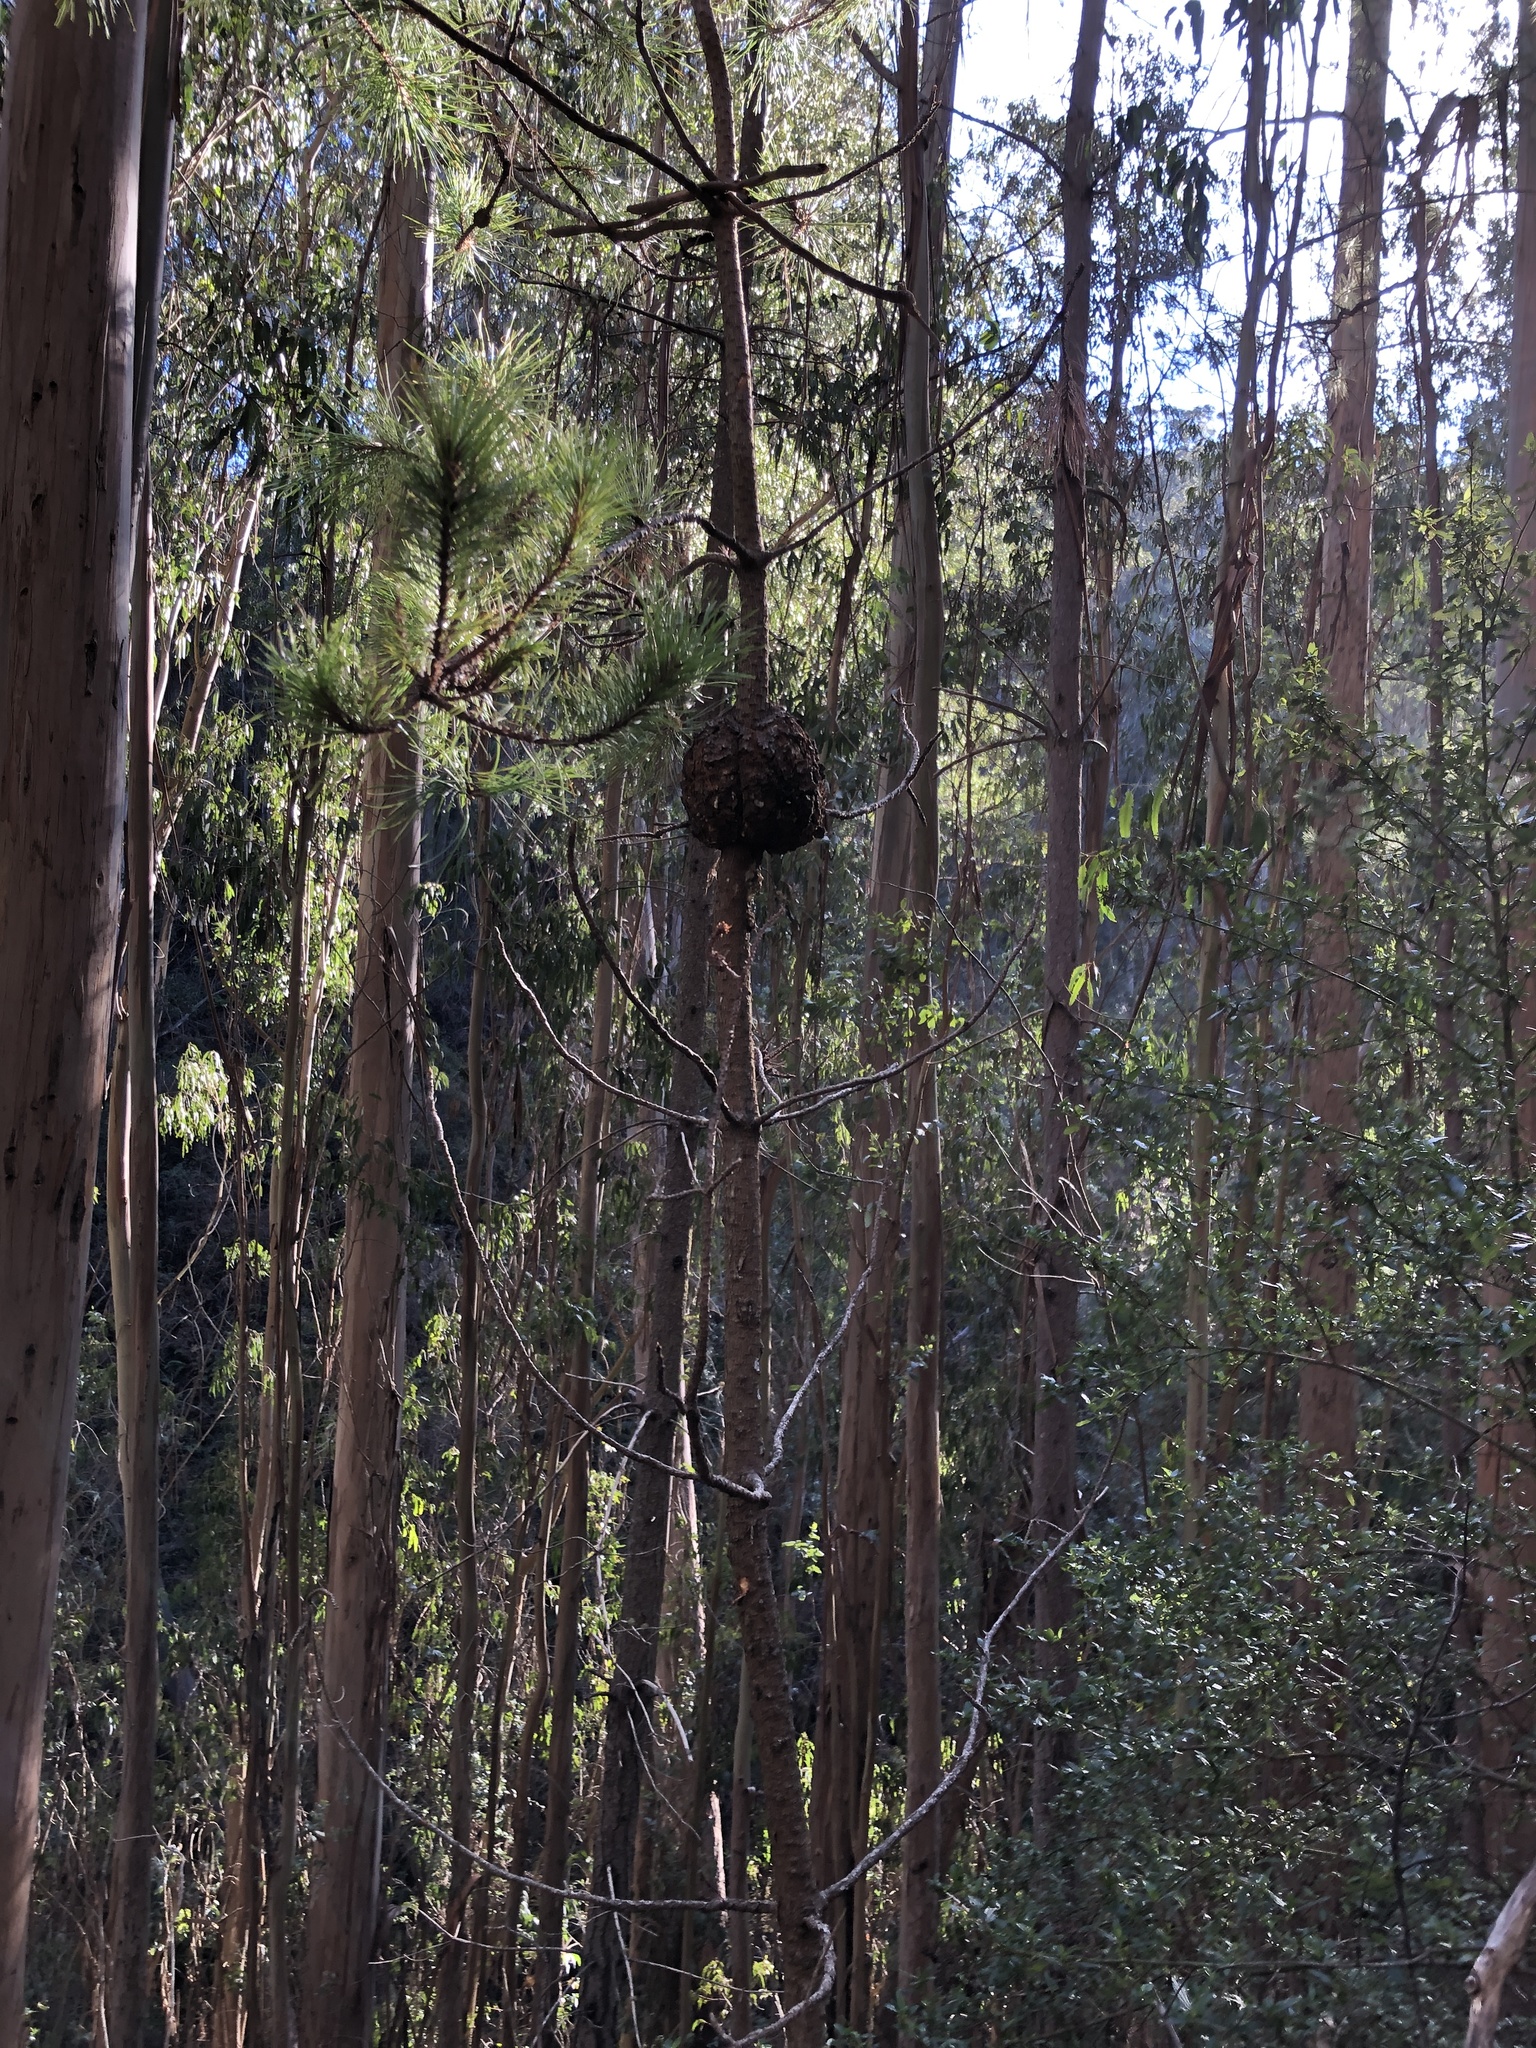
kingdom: Fungi
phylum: Basidiomycota
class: Pucciniomycetes
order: Pucciniales
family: Cronartiaceae
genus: Cronartium
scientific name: Cronartium harknessii
